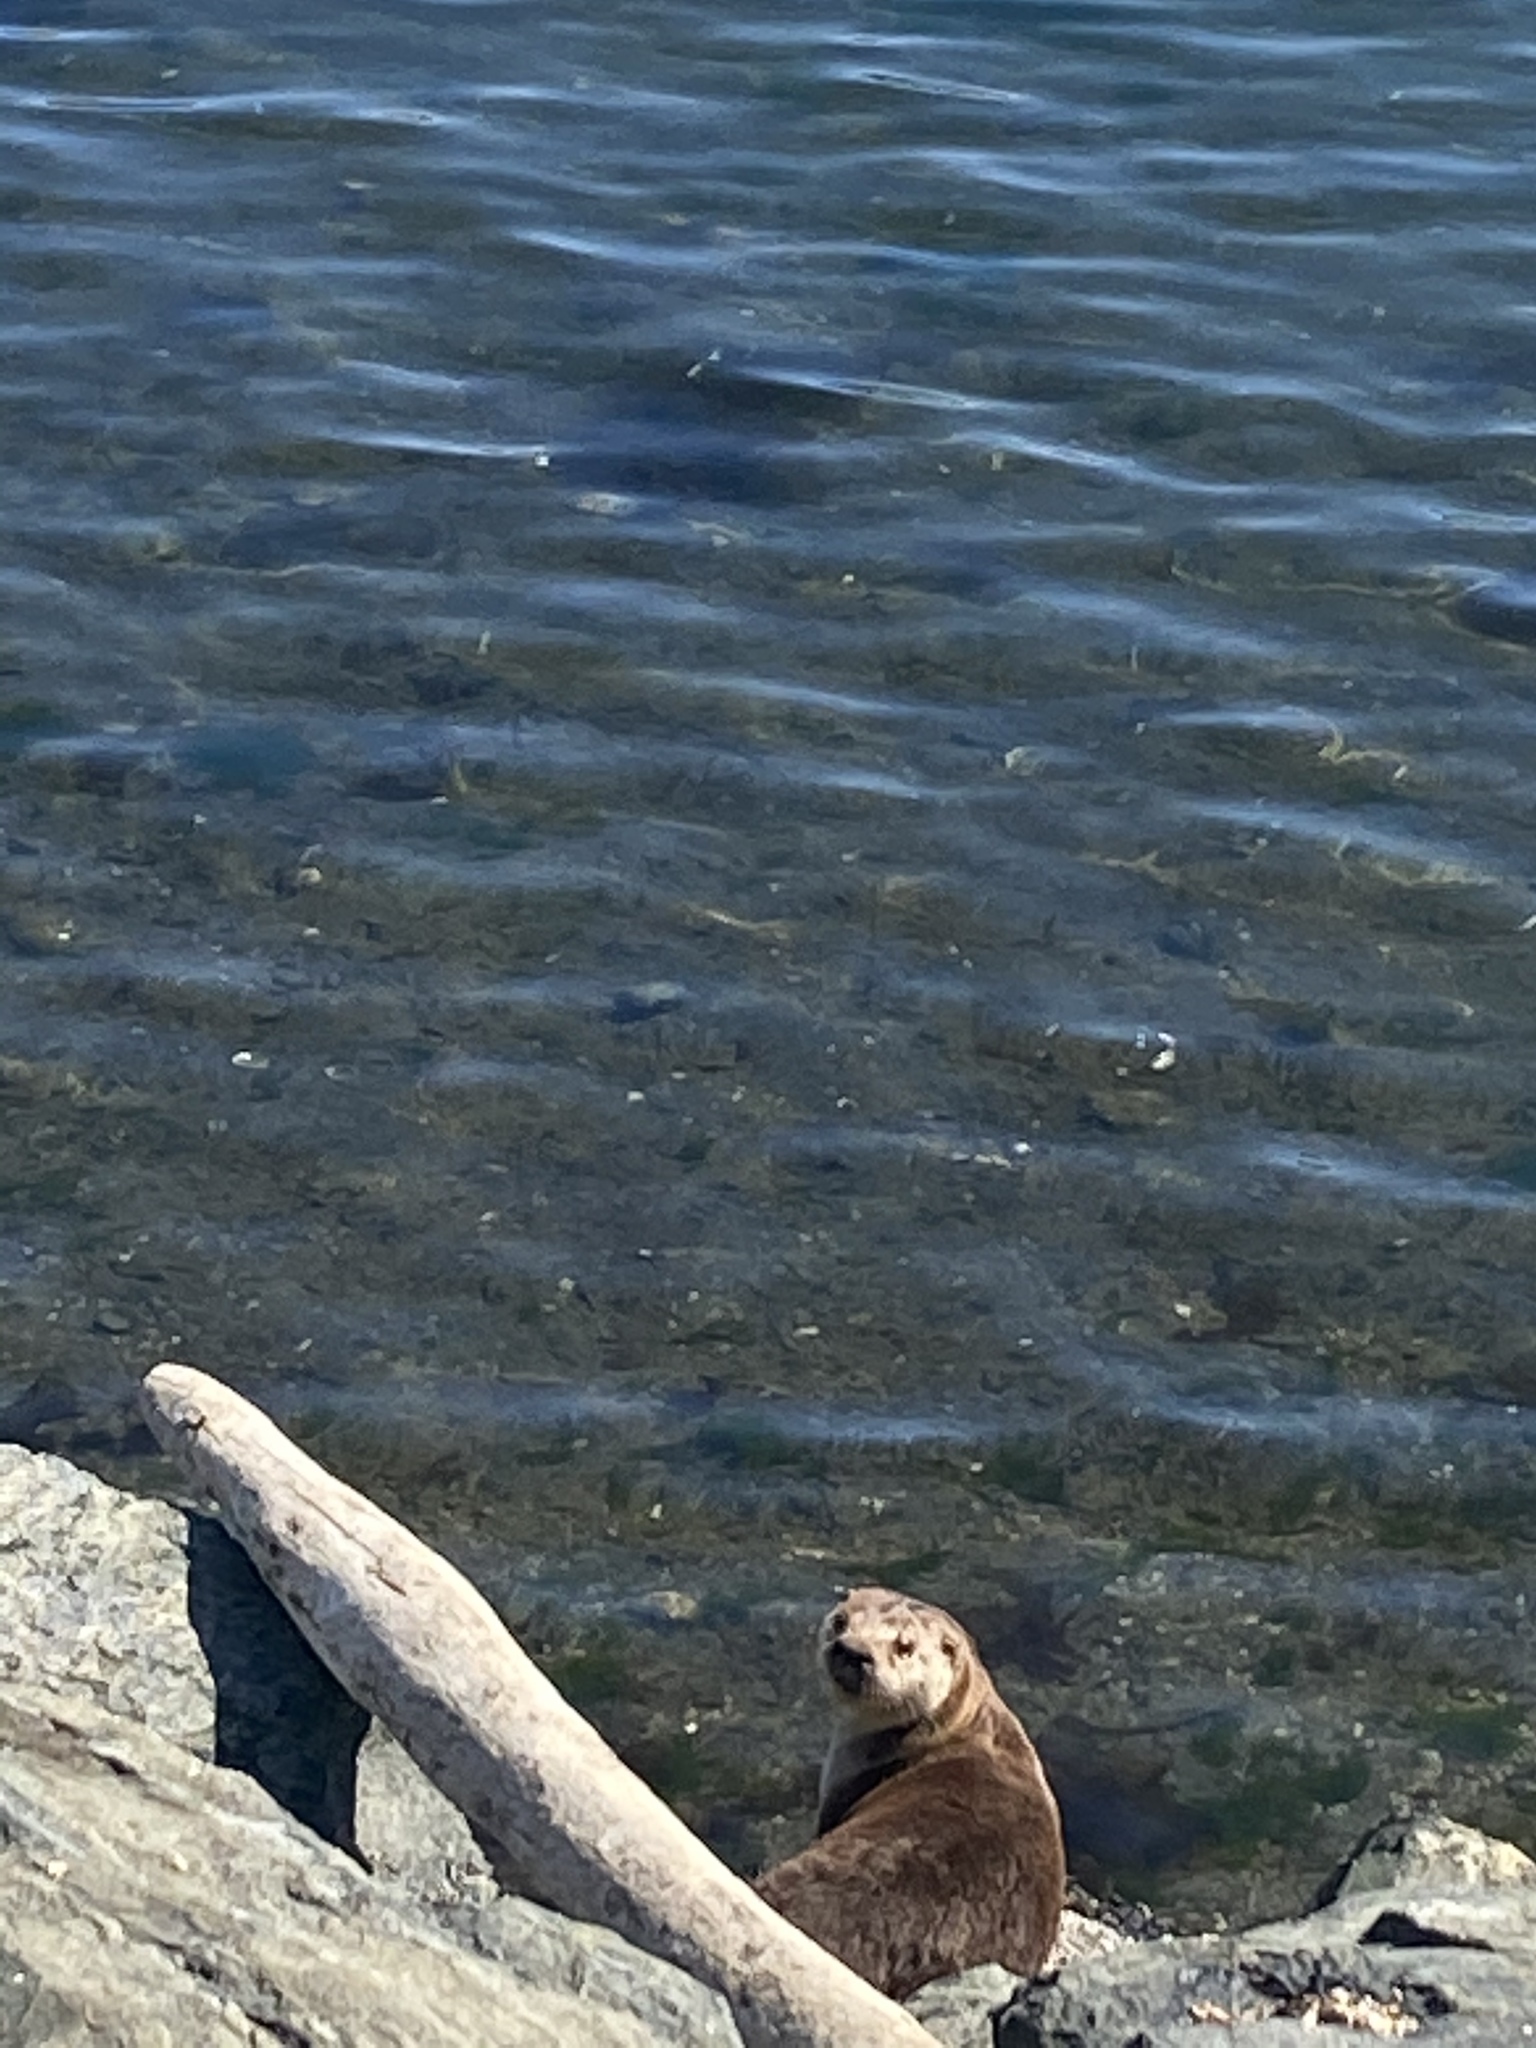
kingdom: Animalia
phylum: Chordata
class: Mammalia
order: Carnivora
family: Mustelidae
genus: Lontra
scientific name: Lontra canadensis
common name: North american river otter
